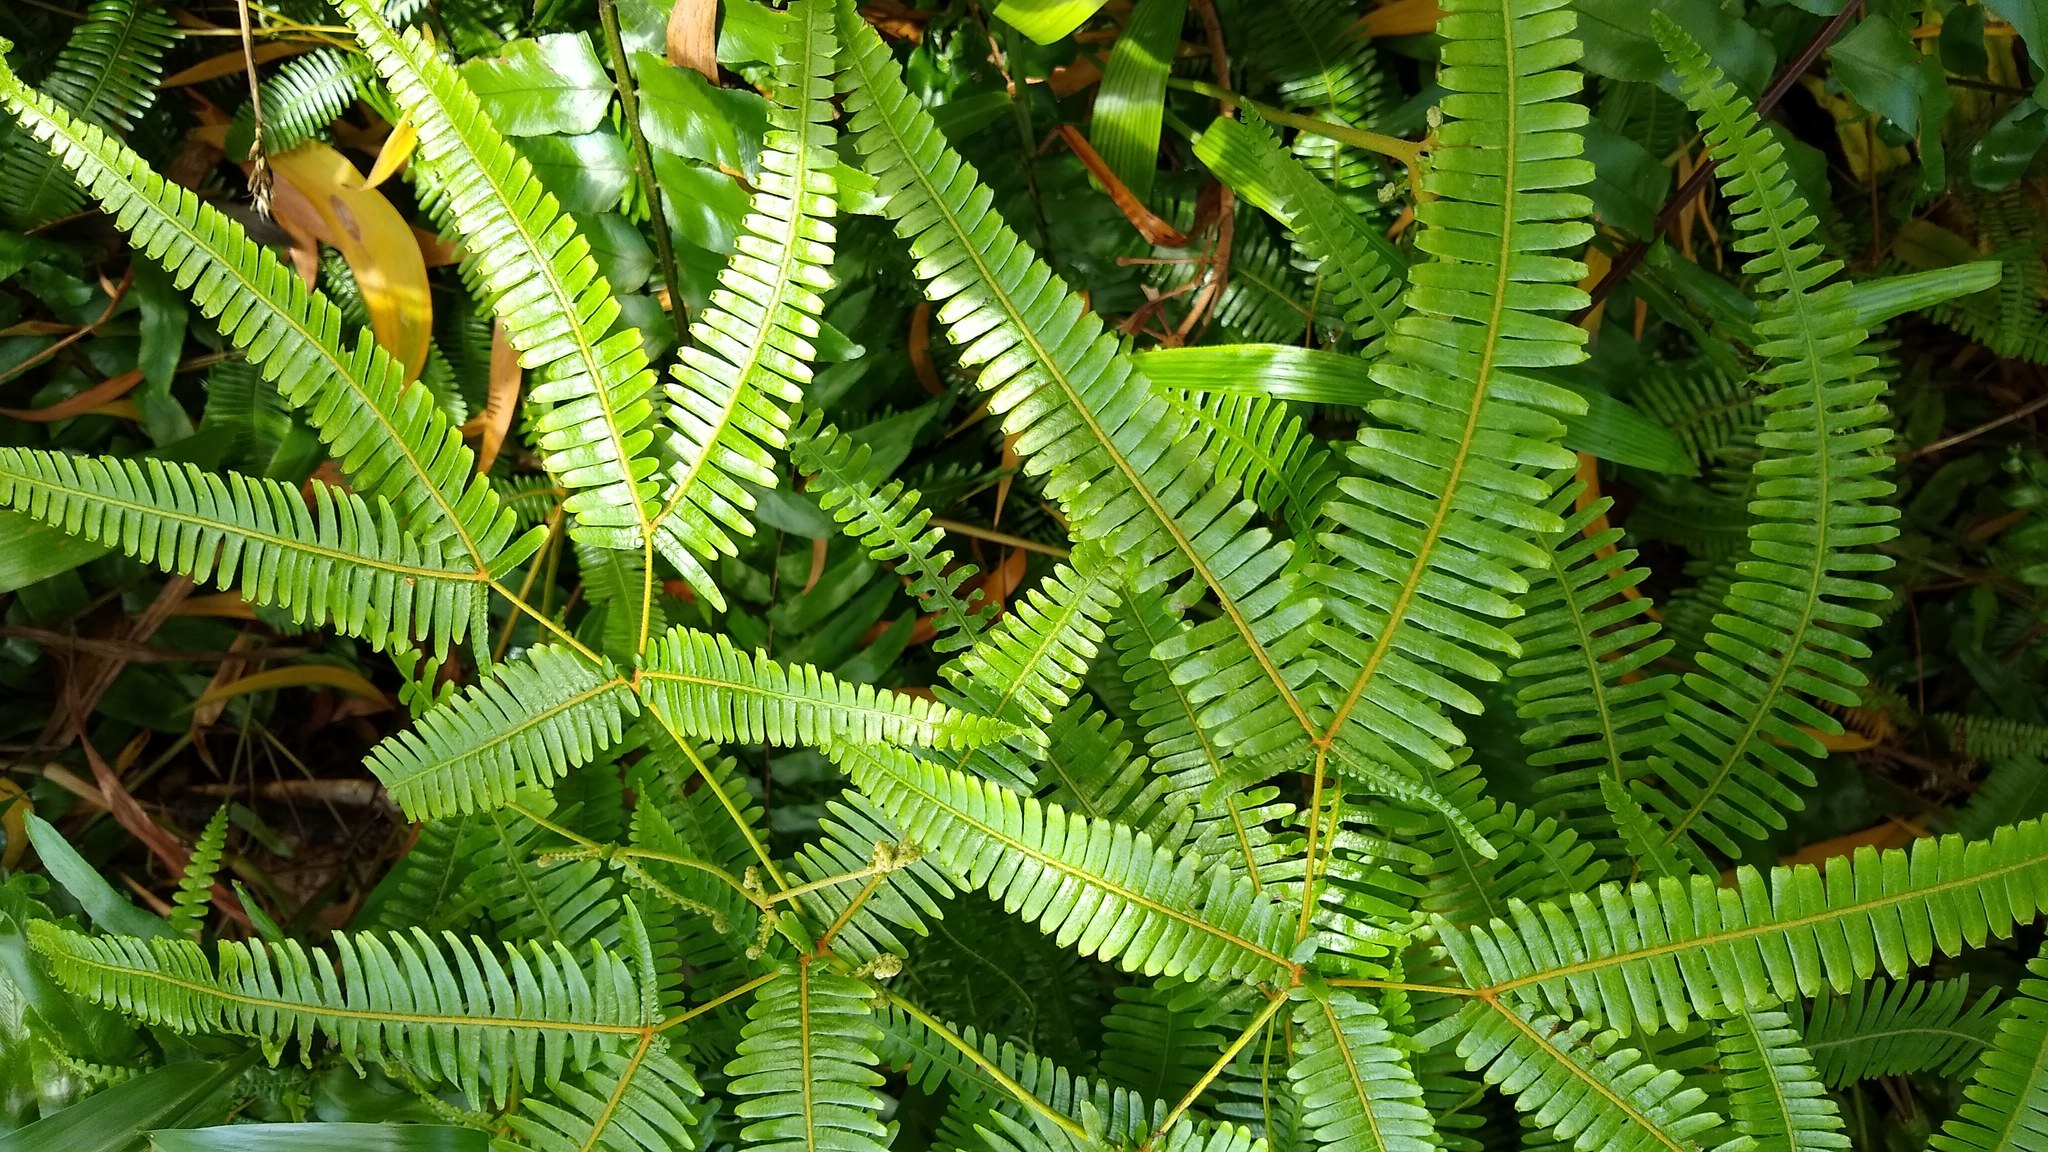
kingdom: Plantae
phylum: Tracheophyta
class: Polypodiopsida
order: Gleicheniales
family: Gleicheniaceae
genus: Dicranopteris
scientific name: Dicranopteris linearis
